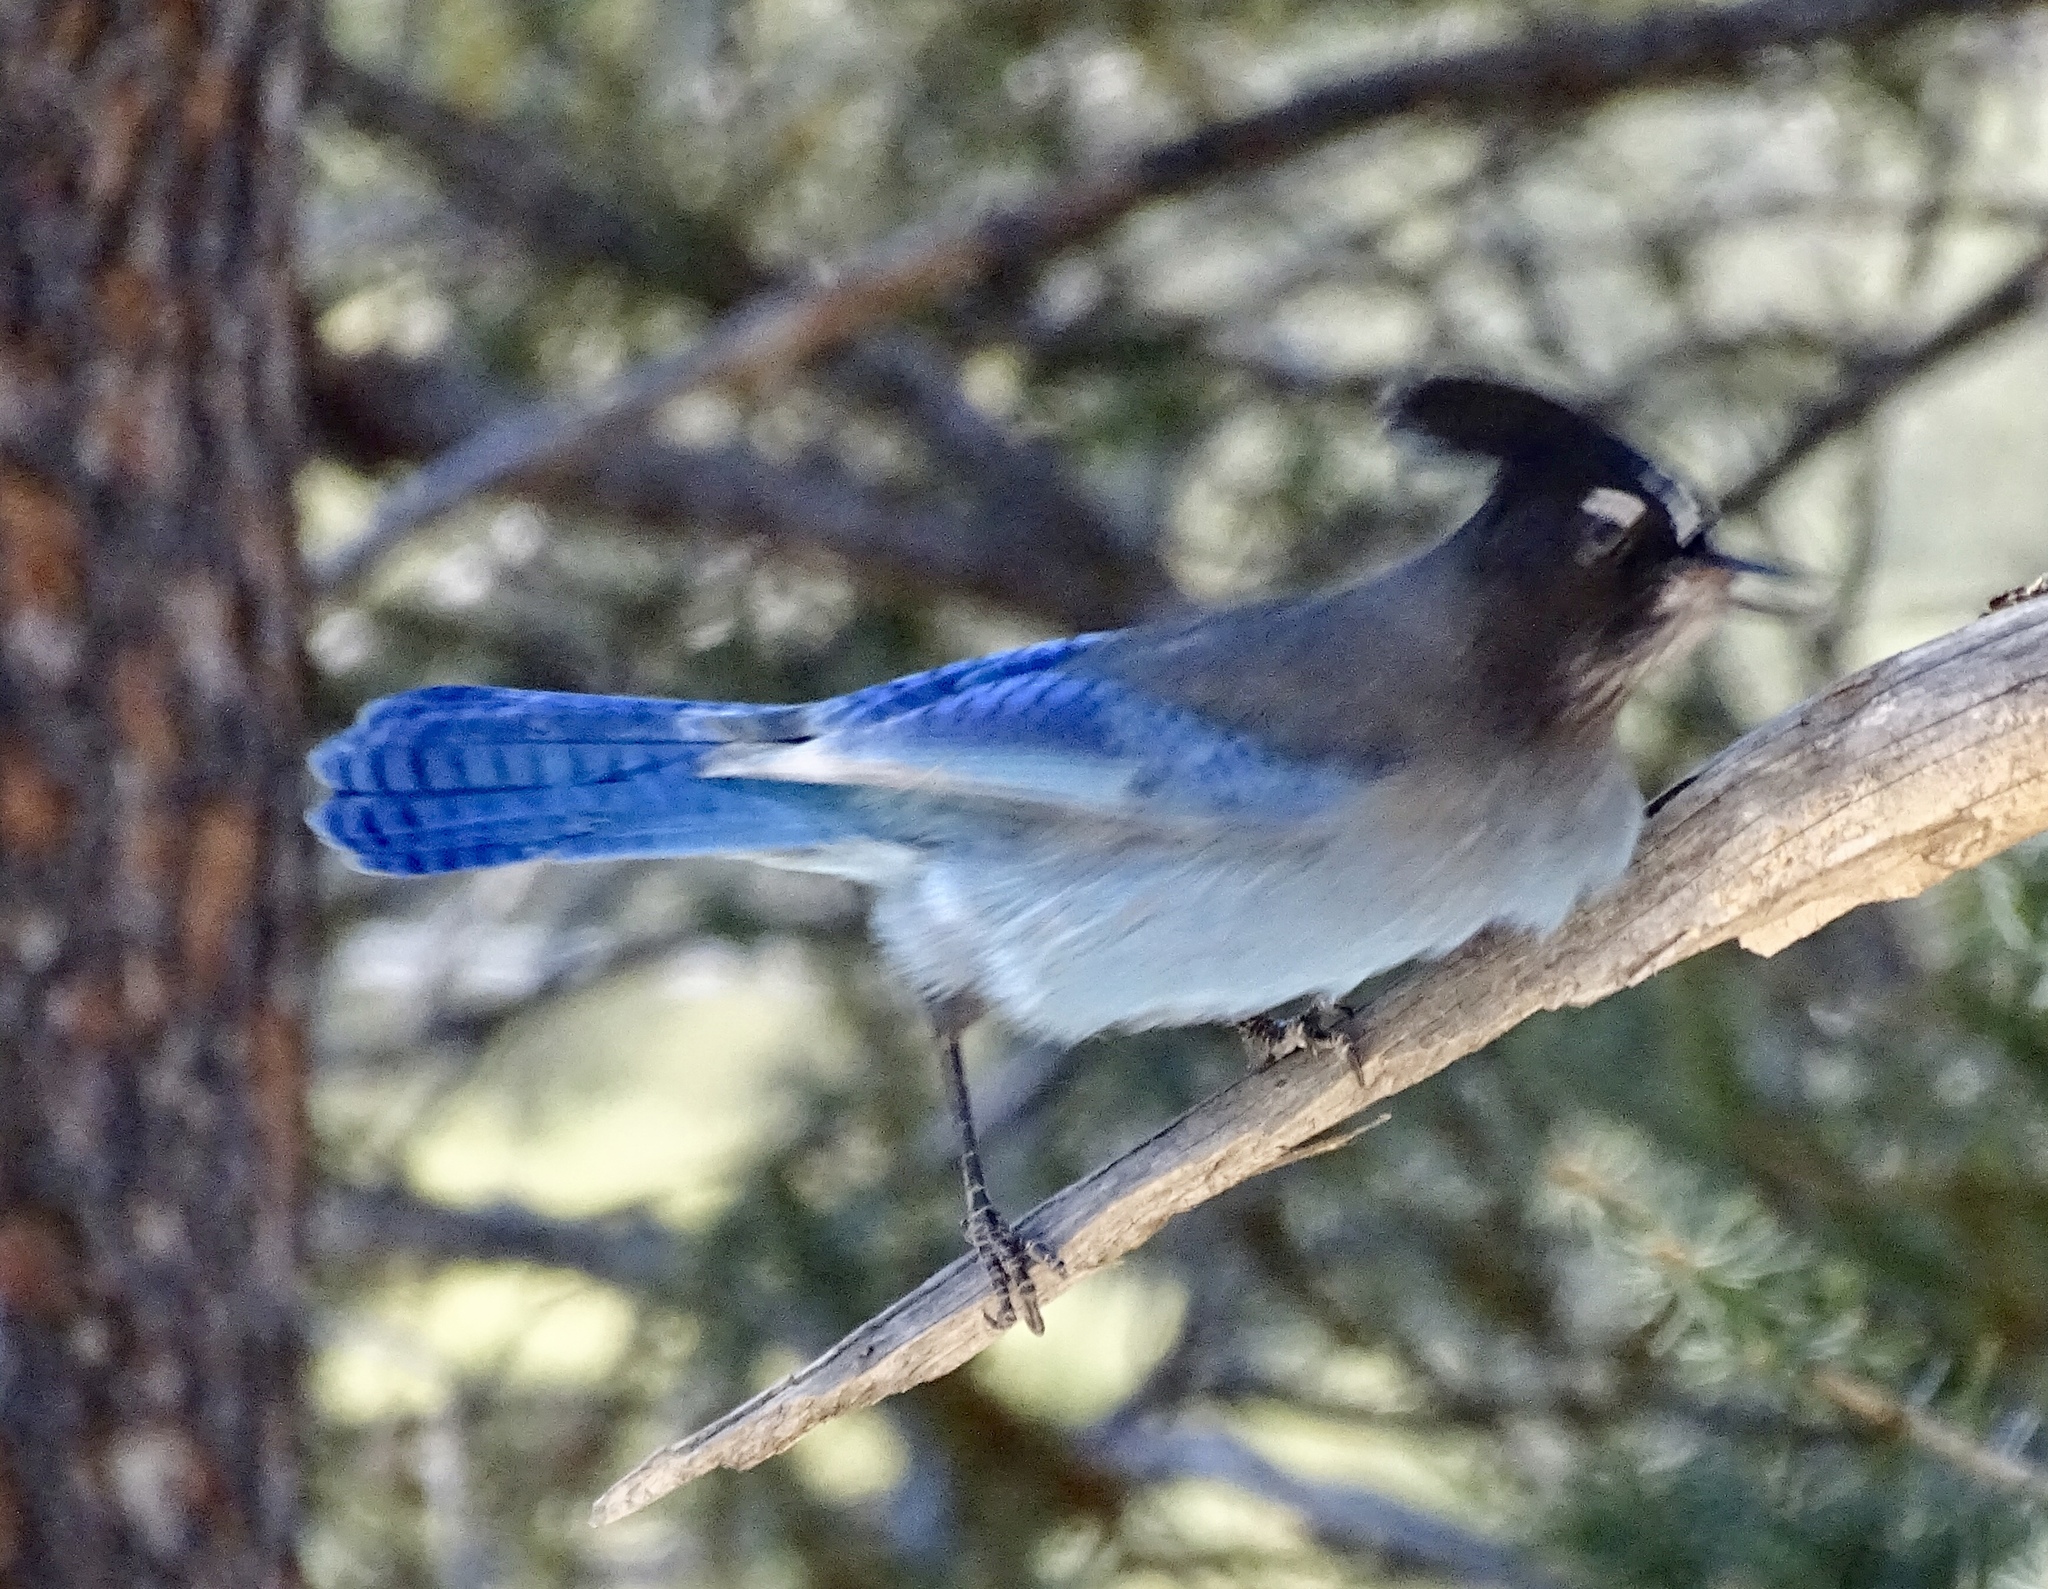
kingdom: Animalia
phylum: Chordata
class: Aves
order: Passeriformes
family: Corvidae
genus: Cyanocitta
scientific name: Cyanocitta stelleri
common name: Steller's jay
